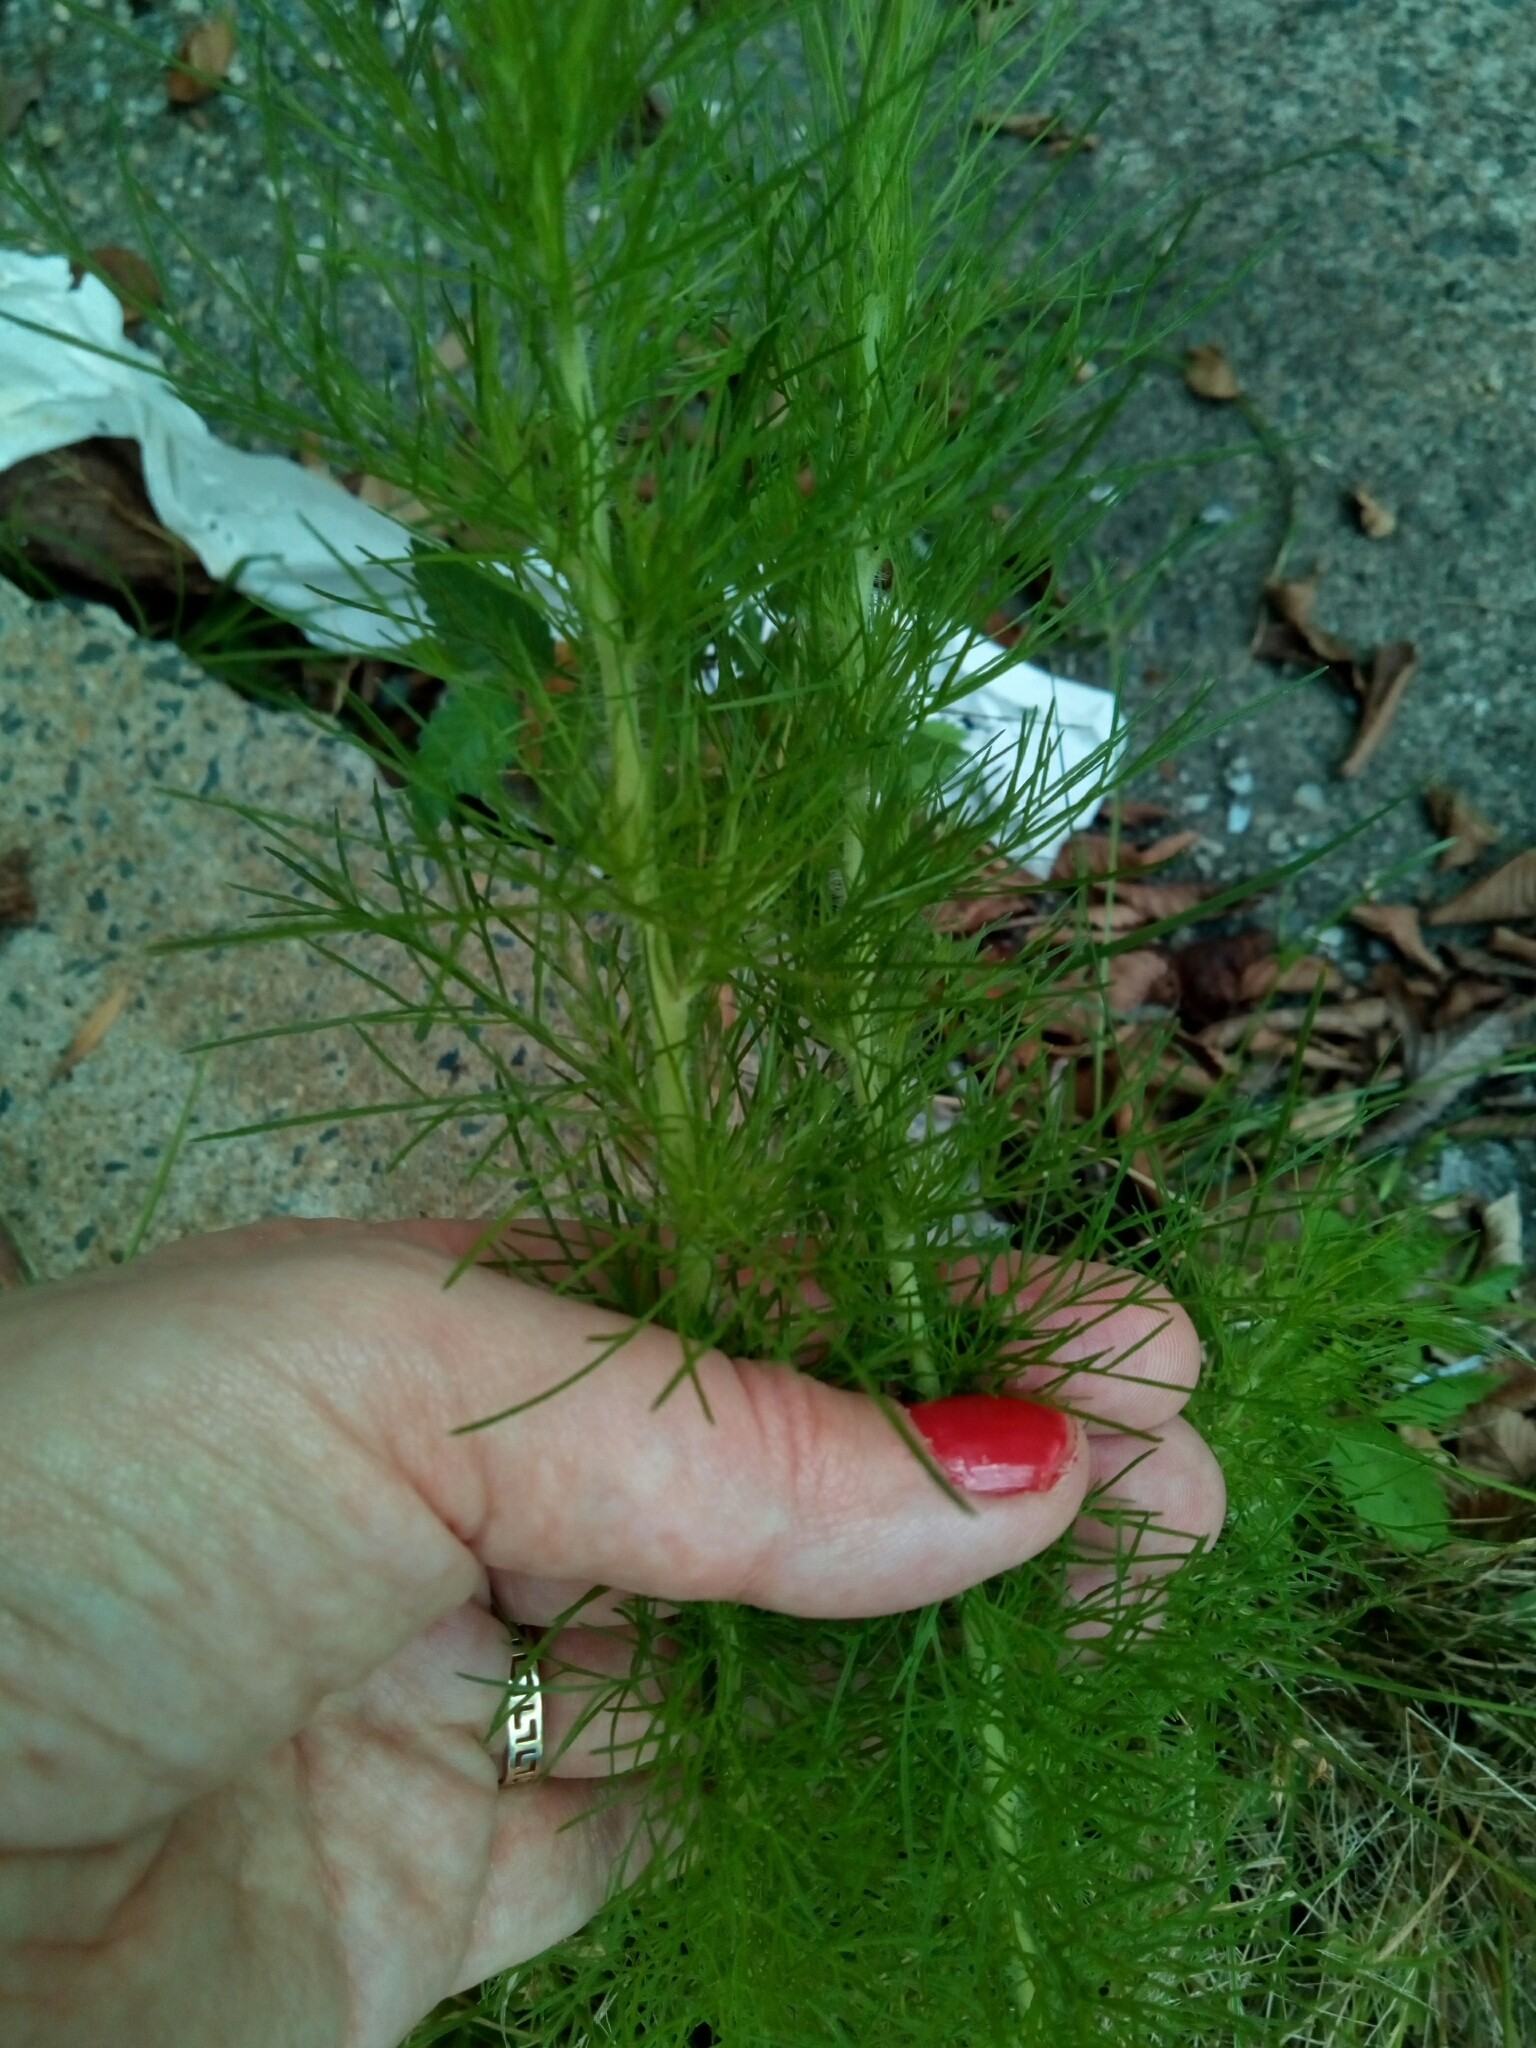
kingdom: Plantae
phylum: Tracheophyta
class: Magnoliopsida
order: Asterales
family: Asteraceae
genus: Eupatorium
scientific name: Eupatorium capillifolium
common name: Dog-fennel
